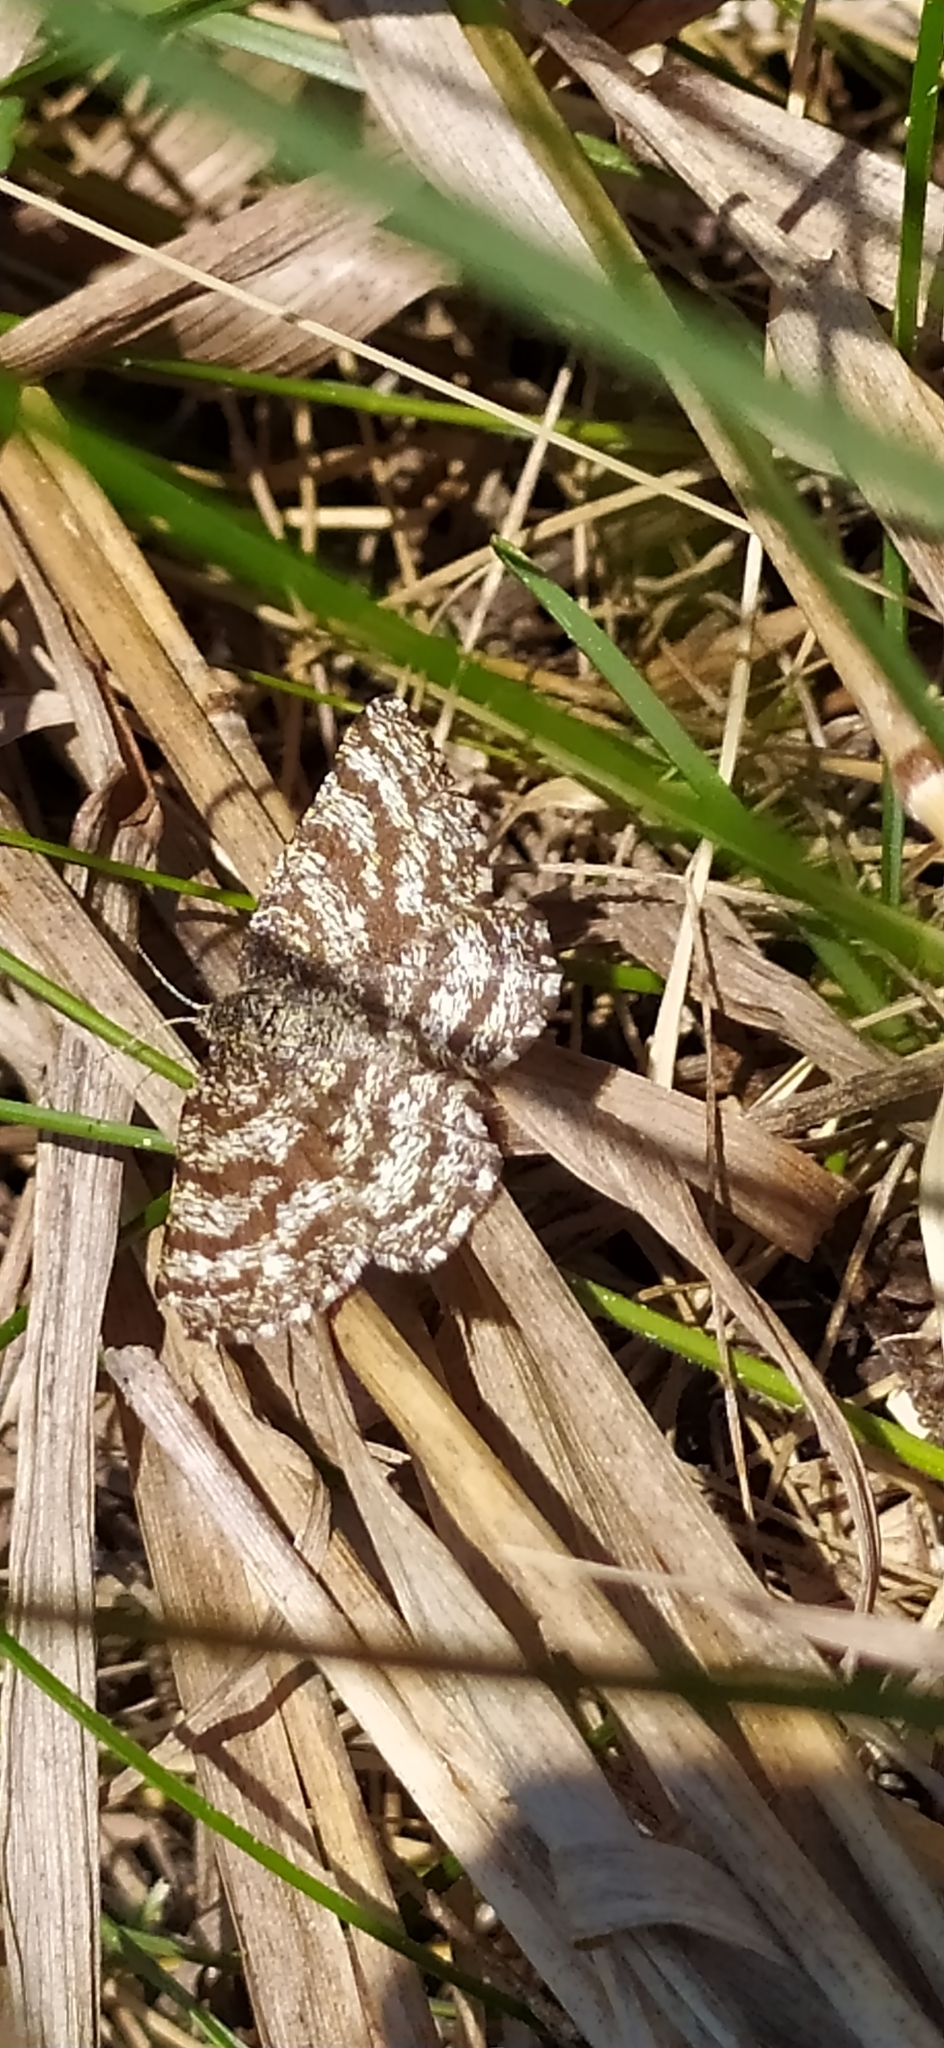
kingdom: Animalia
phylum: Arthropoda
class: Insecta
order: Lepidoptera
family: Geometridae
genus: Ematurga
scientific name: Ematurga atomaria
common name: Common heath
